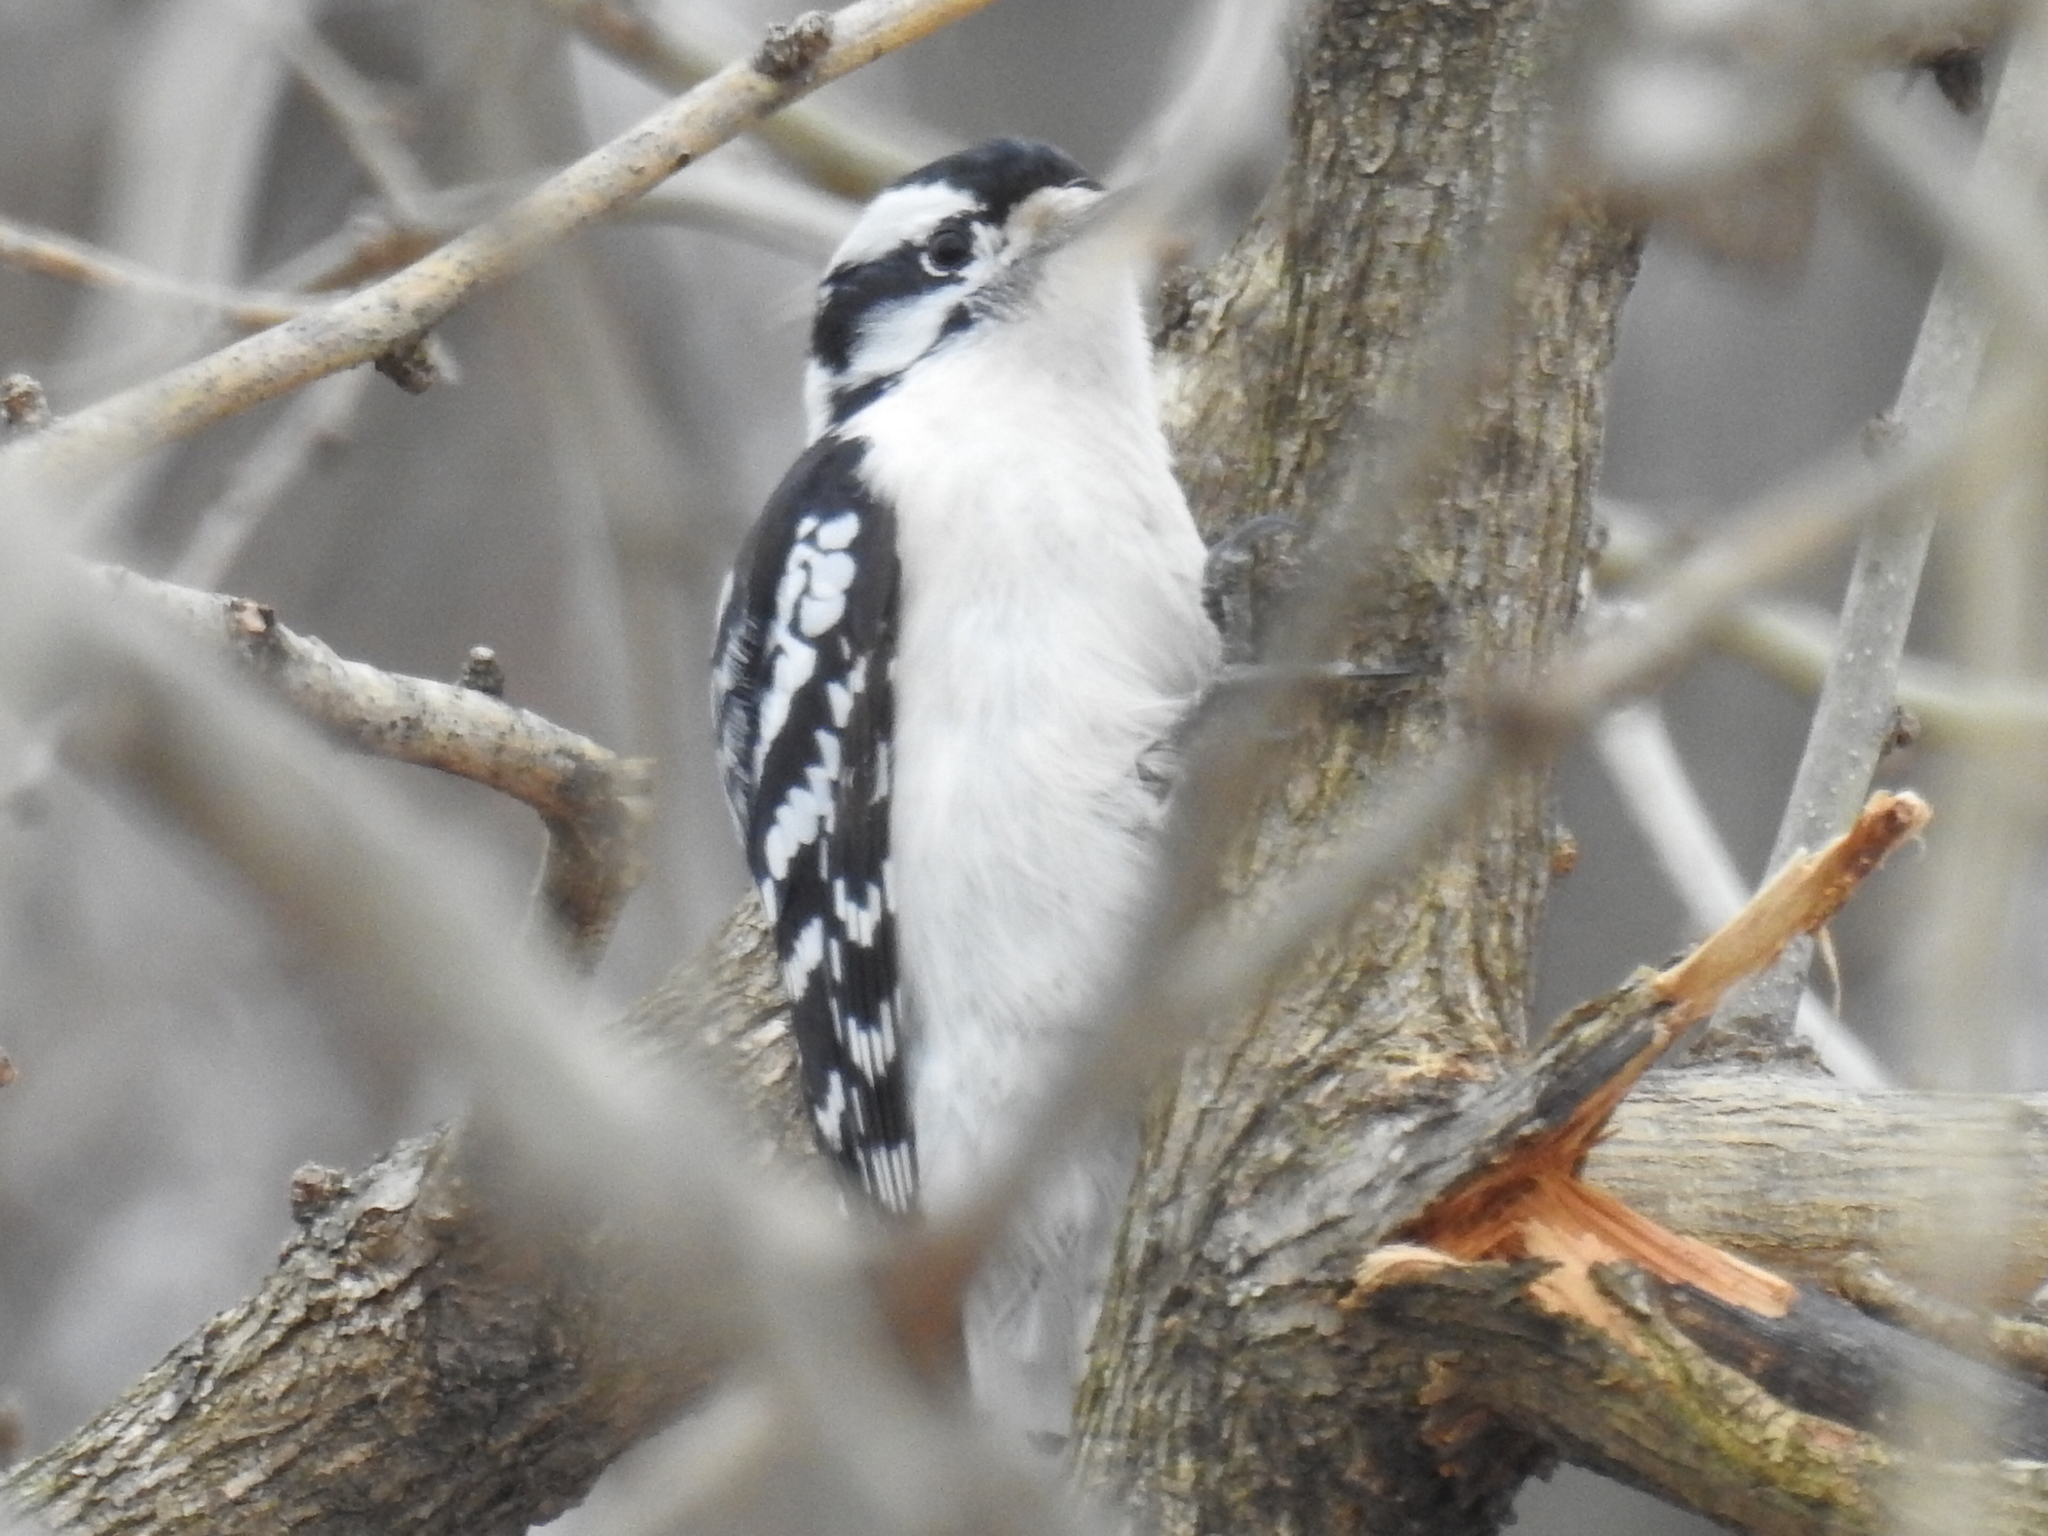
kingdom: Animalia
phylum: Chordata
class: Aves
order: Piciformes
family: Picidae
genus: Dryobates
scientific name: Dryobates pubescens
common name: Downy woodpecker
